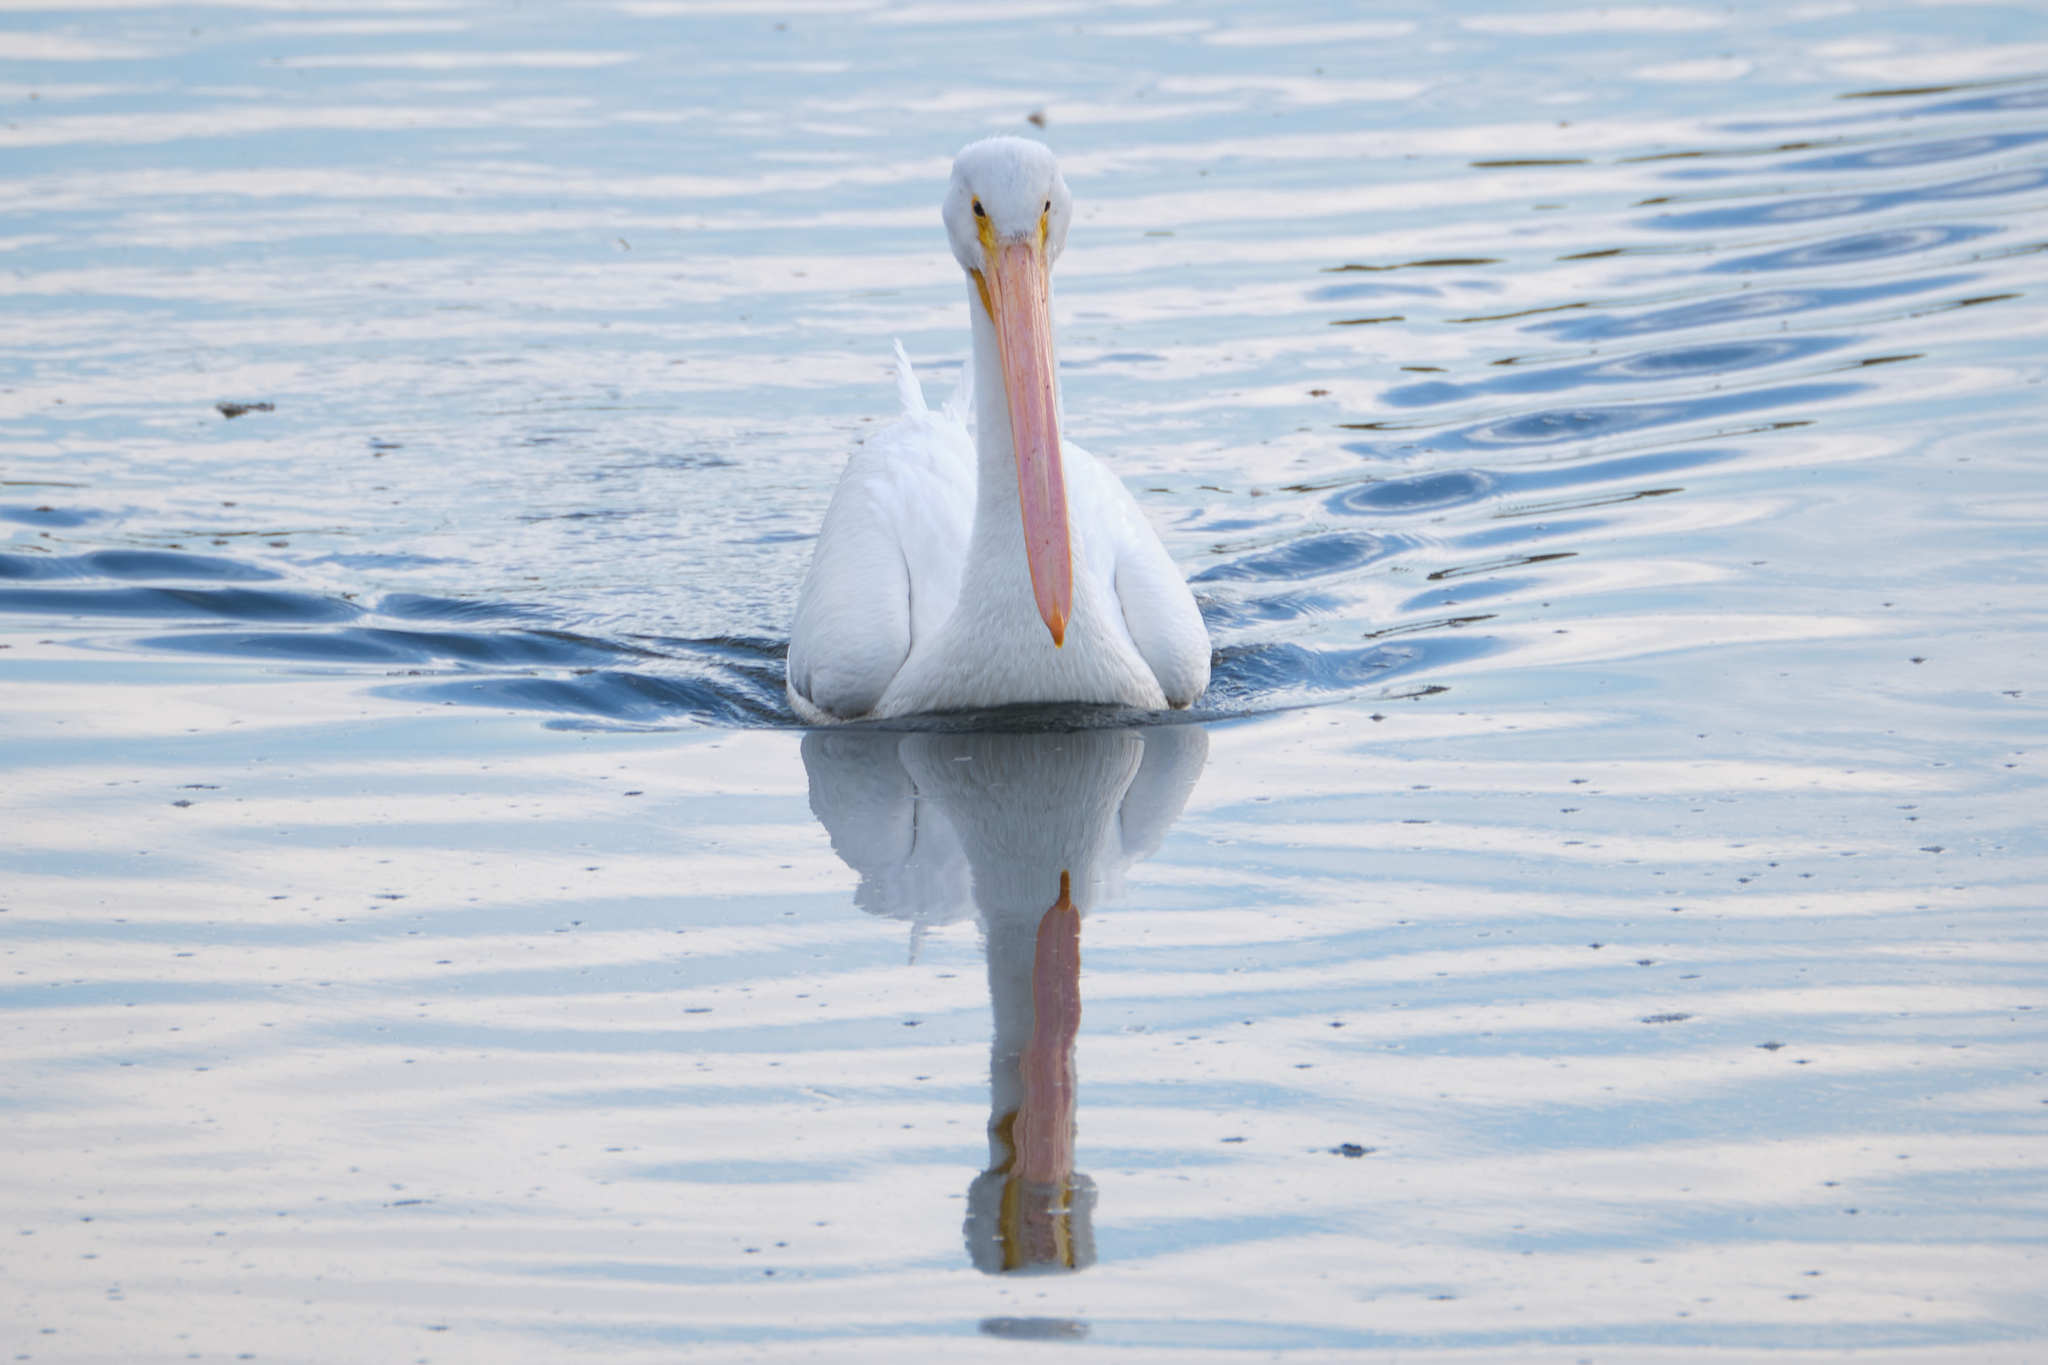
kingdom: Animalia
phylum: Chordata
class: Aves
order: Pelecaniformes
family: Pelecanidae
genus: Pelecanus
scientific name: Pelecanus erythrorhynchos
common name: American white pelican
